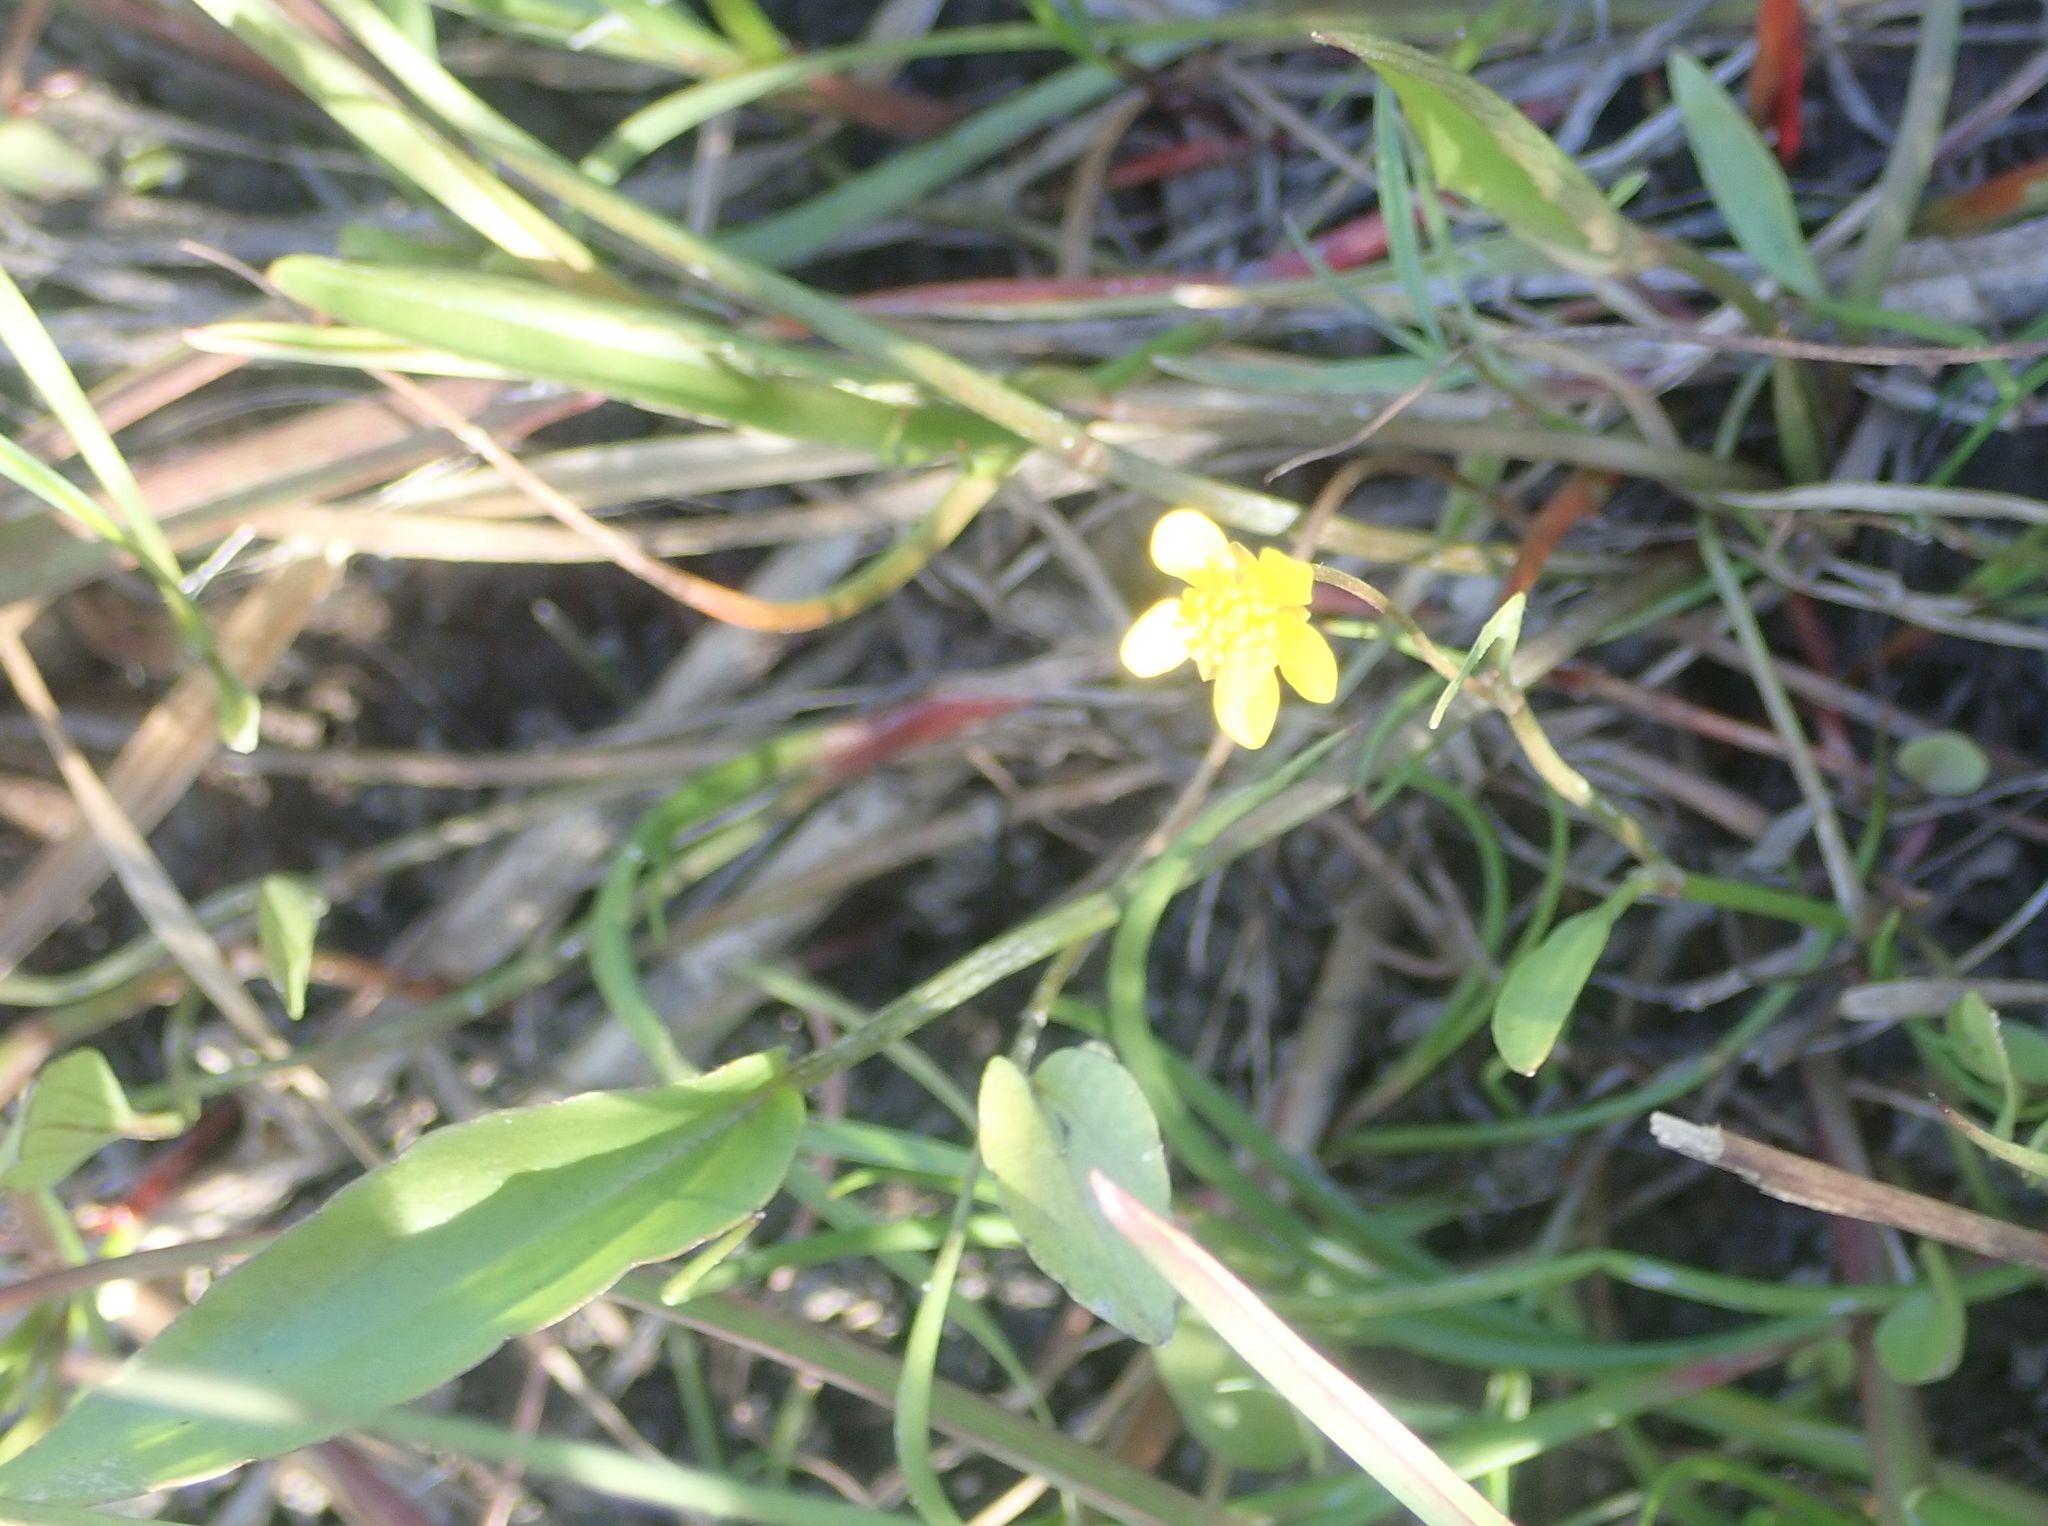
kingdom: Plantae
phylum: Tracheophyta
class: Magnoliopsida
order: Ranunculales
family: Ranunculaceae
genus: Ranunculus
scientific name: Ranunculus flammula
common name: Lesser spearwort
